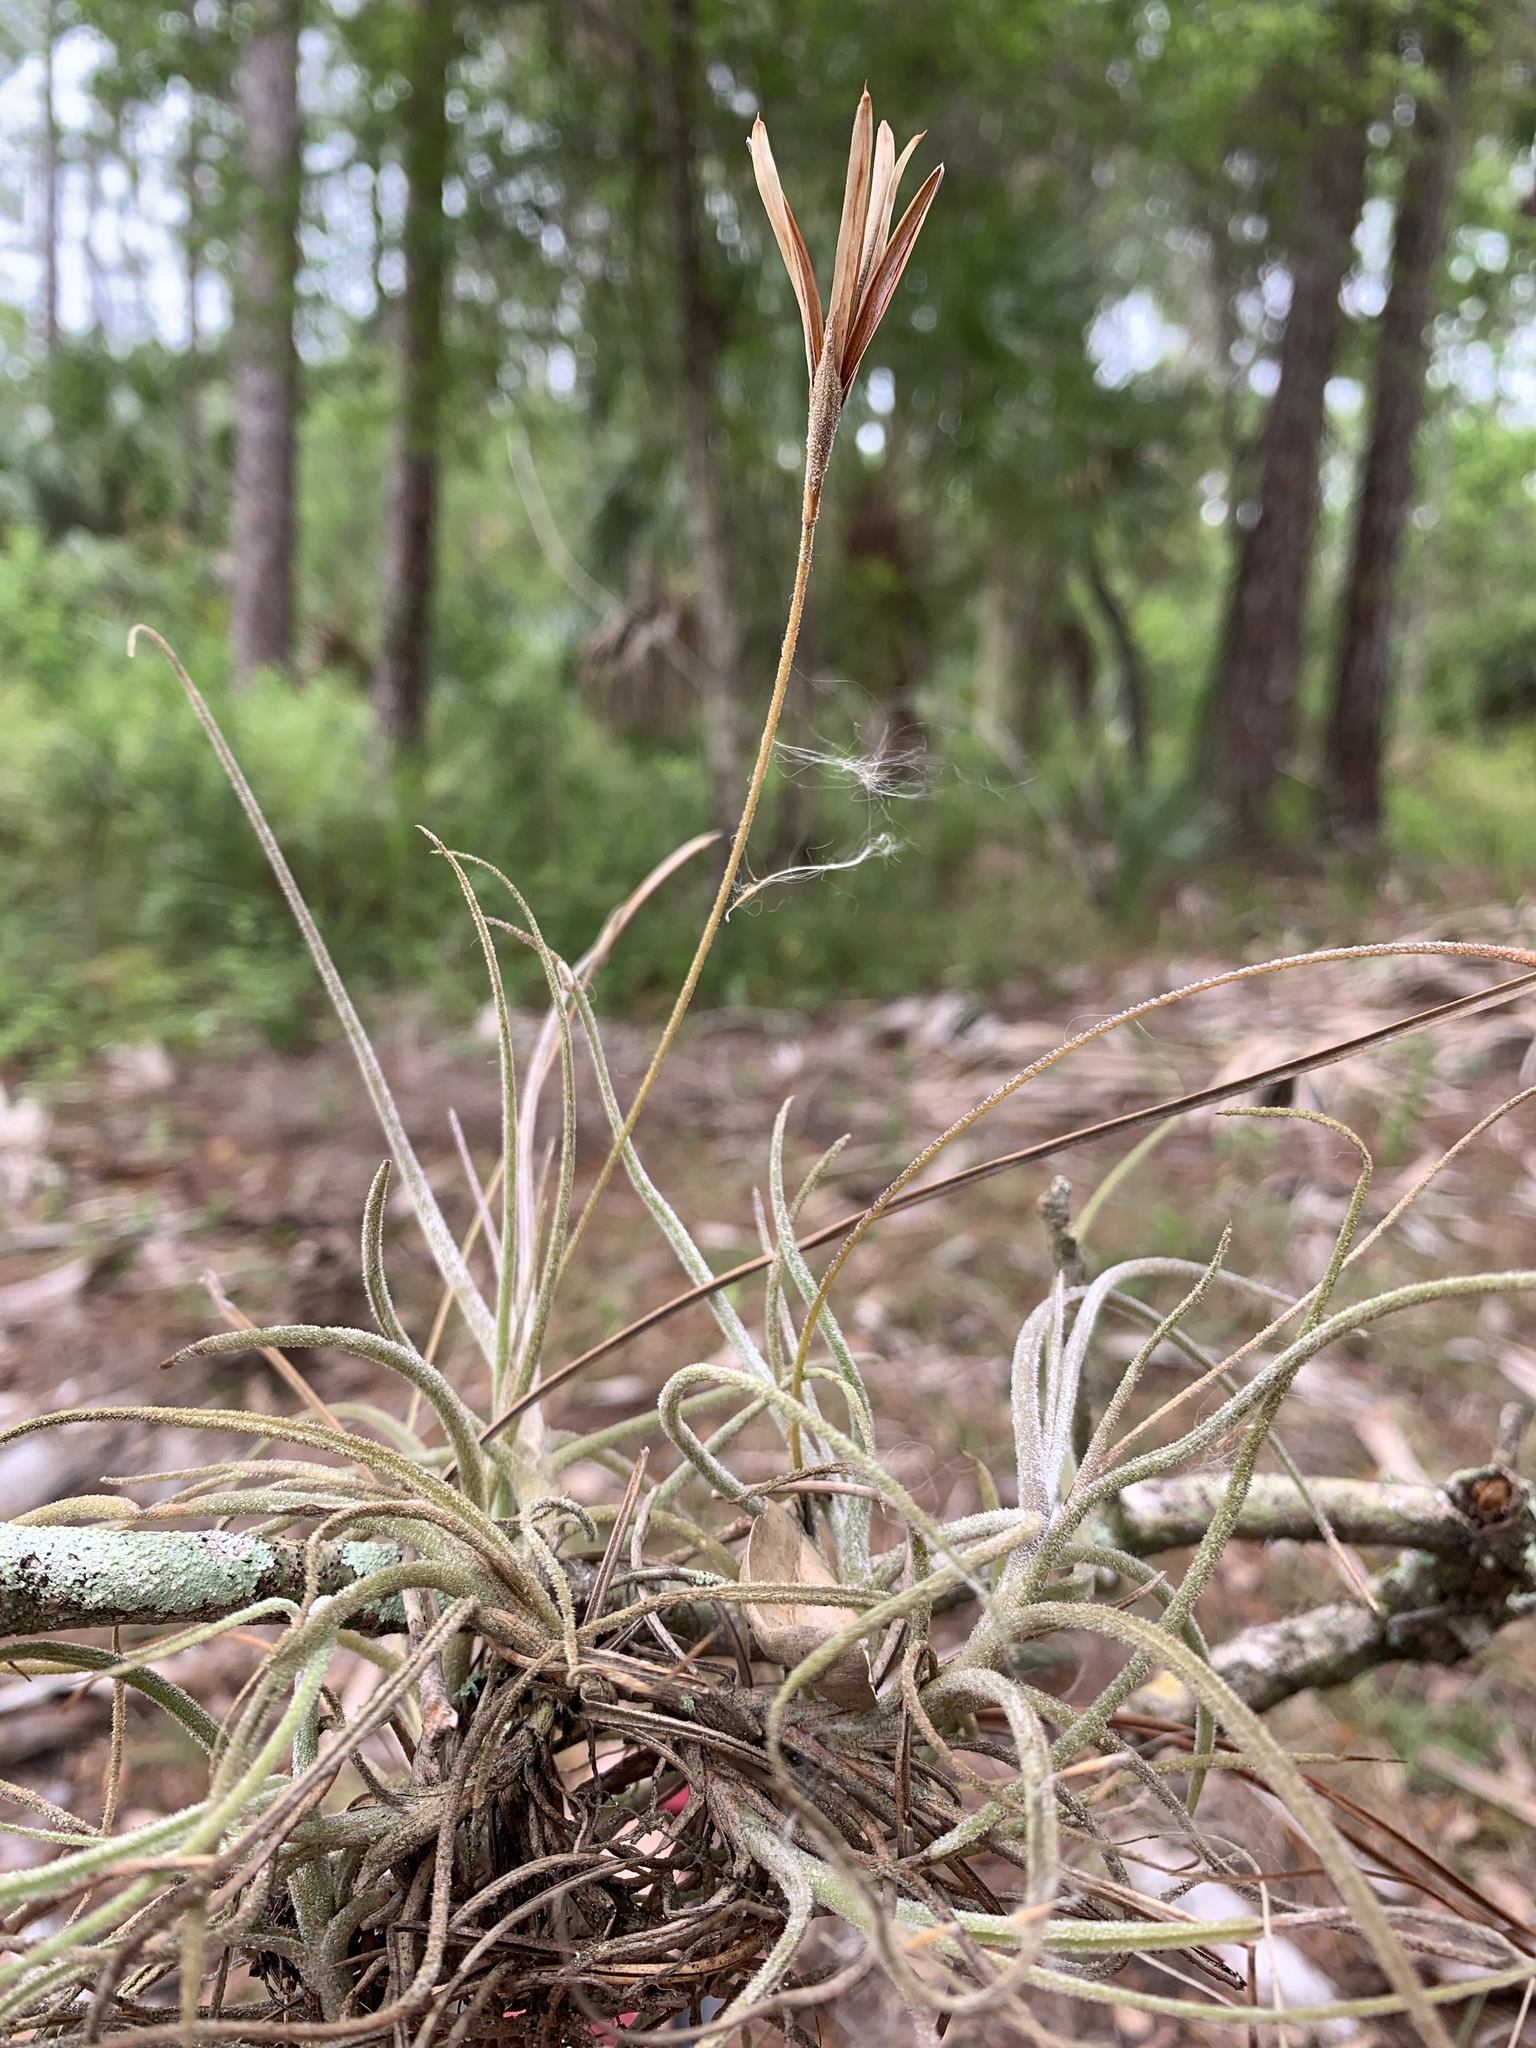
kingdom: Plantae
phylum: Tracheophyta
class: Liliopsida
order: Poales
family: Bromeliaceae
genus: Tillandsia
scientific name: Tillandsia recurvata
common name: Small ballmoss
